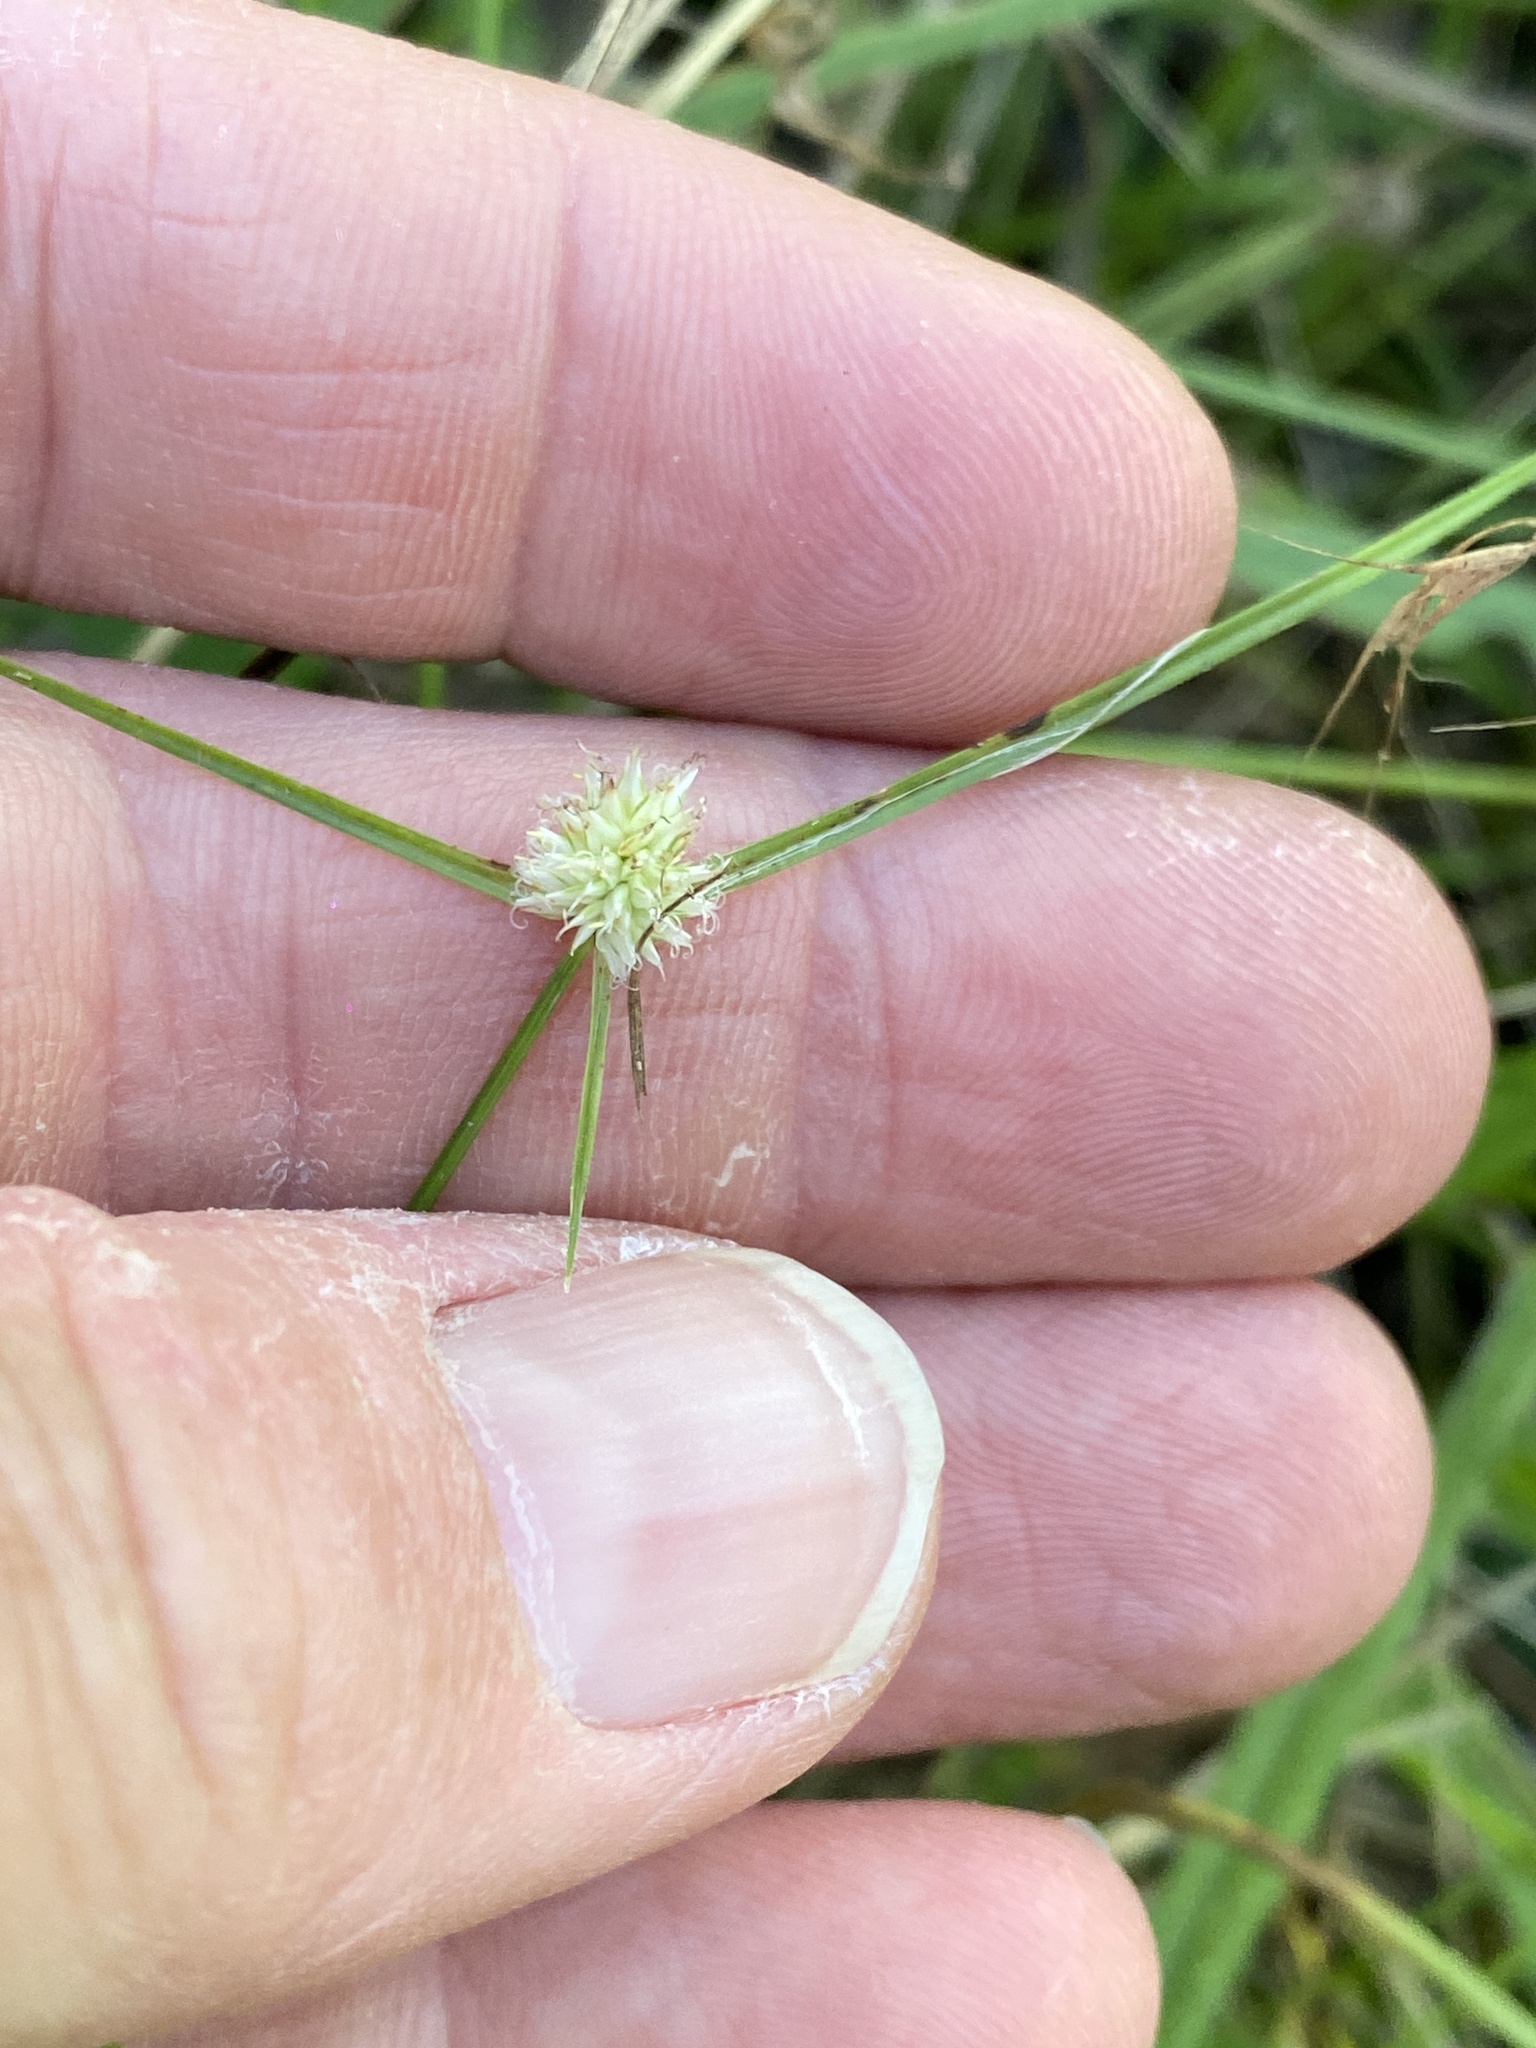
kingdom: Plantae
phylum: Tracheophyta
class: Liliopsida
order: Poales
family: Cyperaceae
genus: Cyperus
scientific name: Cyperus sesquiflorus
